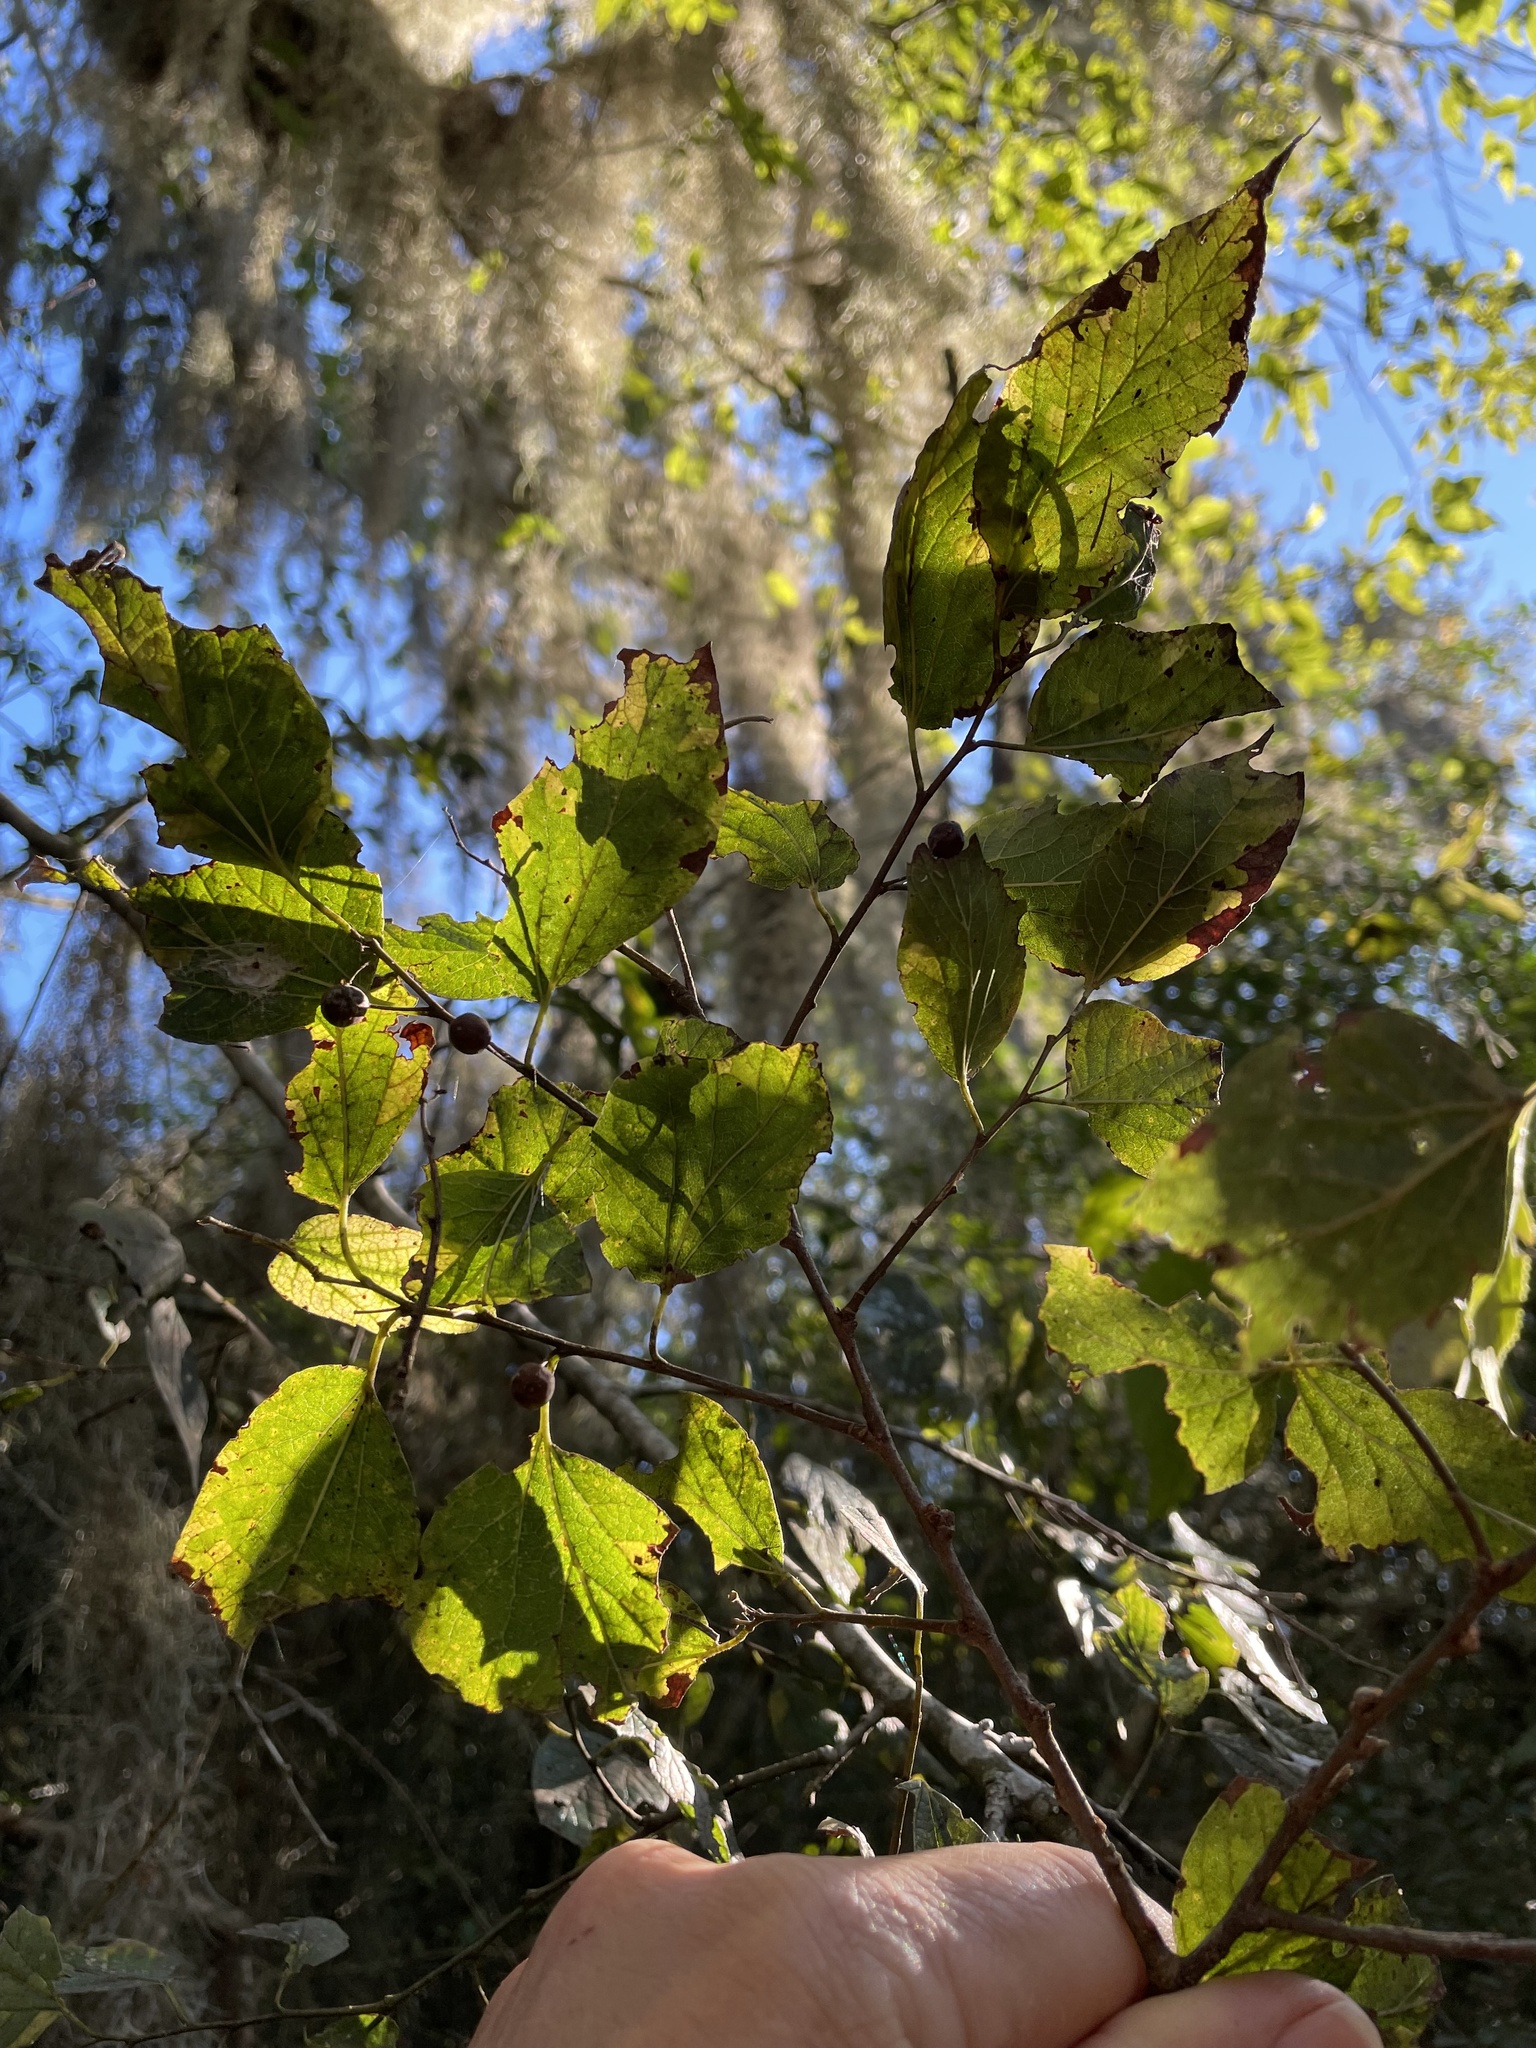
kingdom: Plantae
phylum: Tracheophyta
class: Magnoliopsida
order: Rosales
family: Cannabaceae
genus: Celtis
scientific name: Celtis laevigata
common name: Sugarberry
